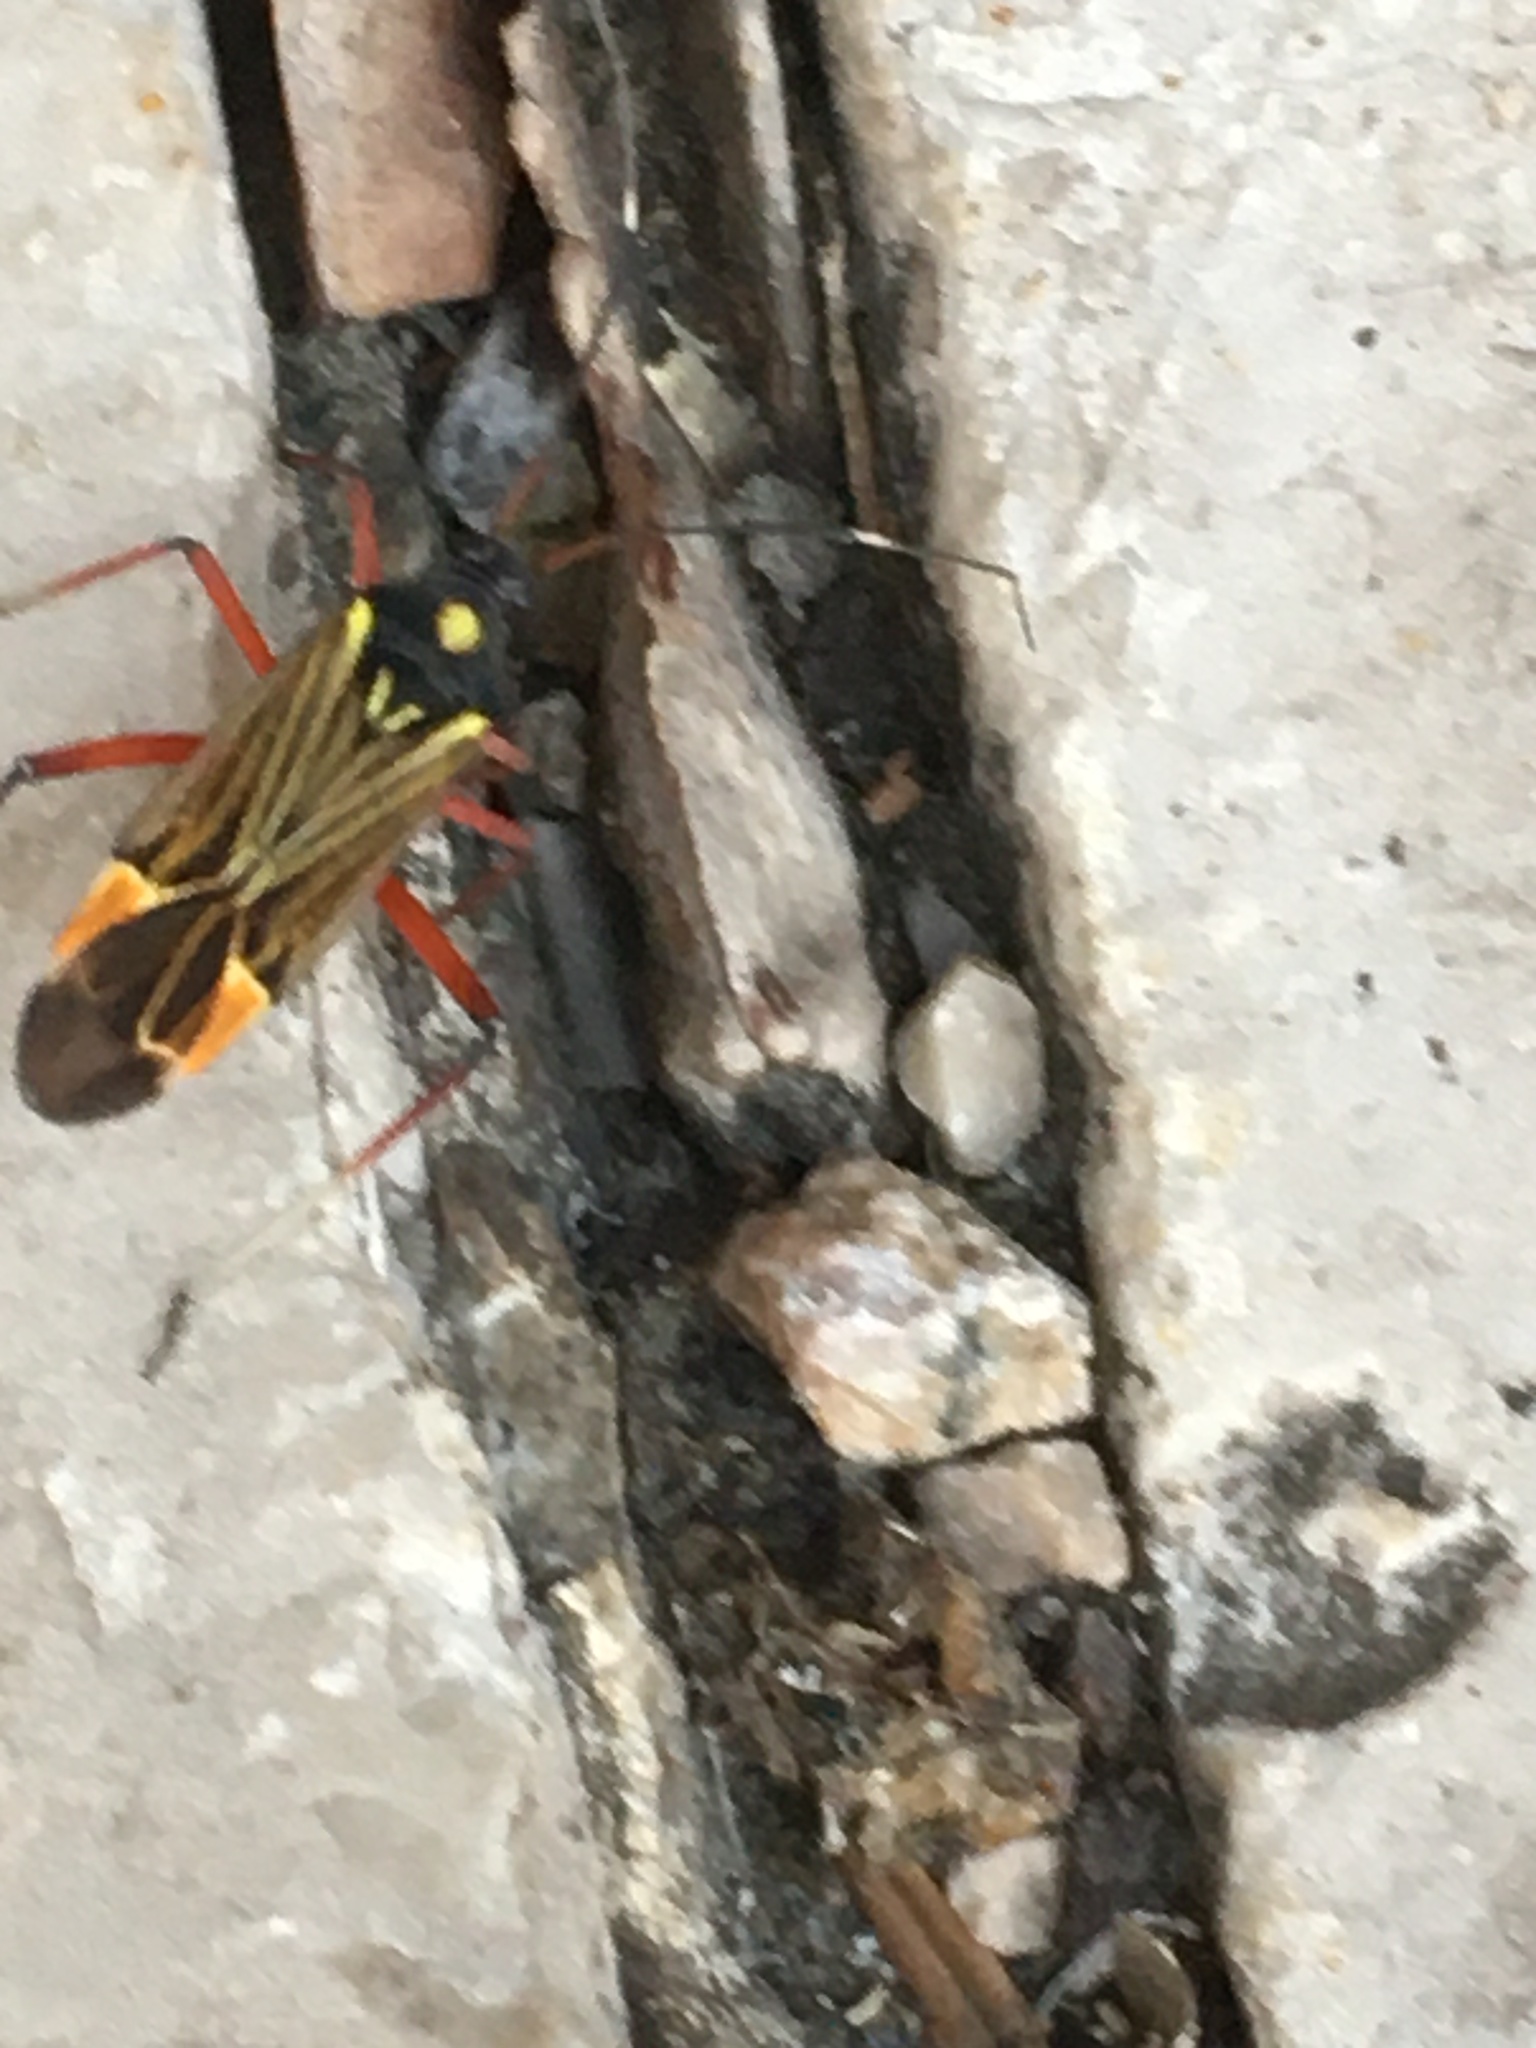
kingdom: Animalia
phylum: Arthropoda
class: Insecta
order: Hemiptera
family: Miridae
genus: Miris
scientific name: Miris striatus
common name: Fine streaked bugkin
